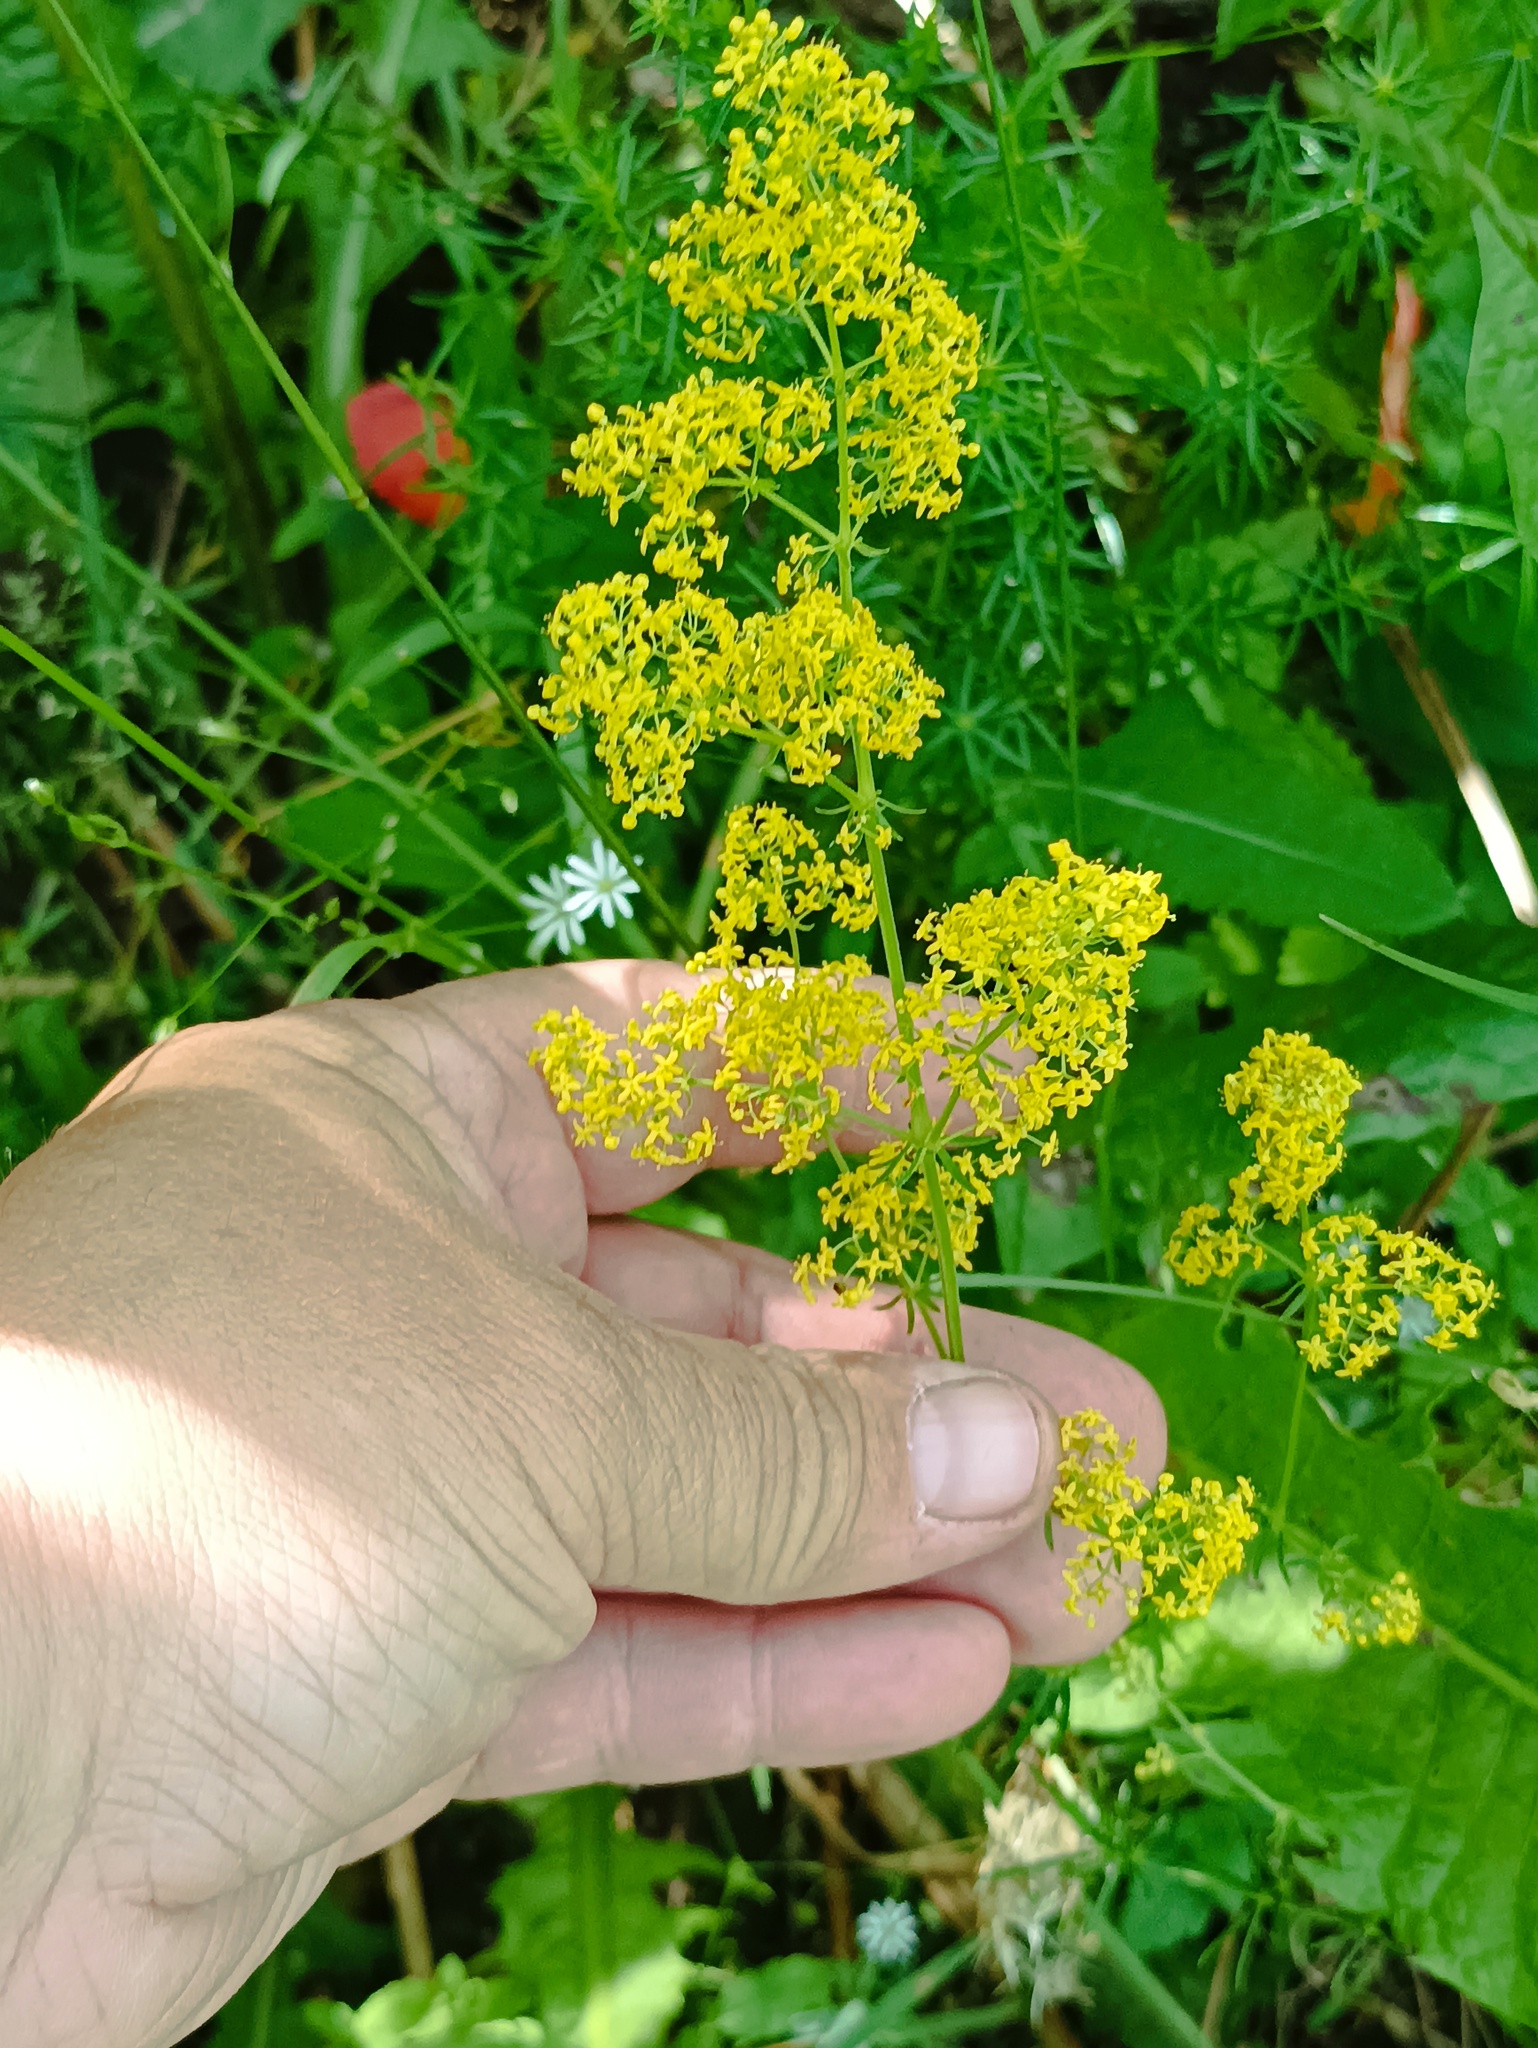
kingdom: Plantae
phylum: Tracheophyta
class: Magnoliopsida
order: Gentianales
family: Rubiaceae
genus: Galium
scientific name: Galium verum
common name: Lady's bedstraw
